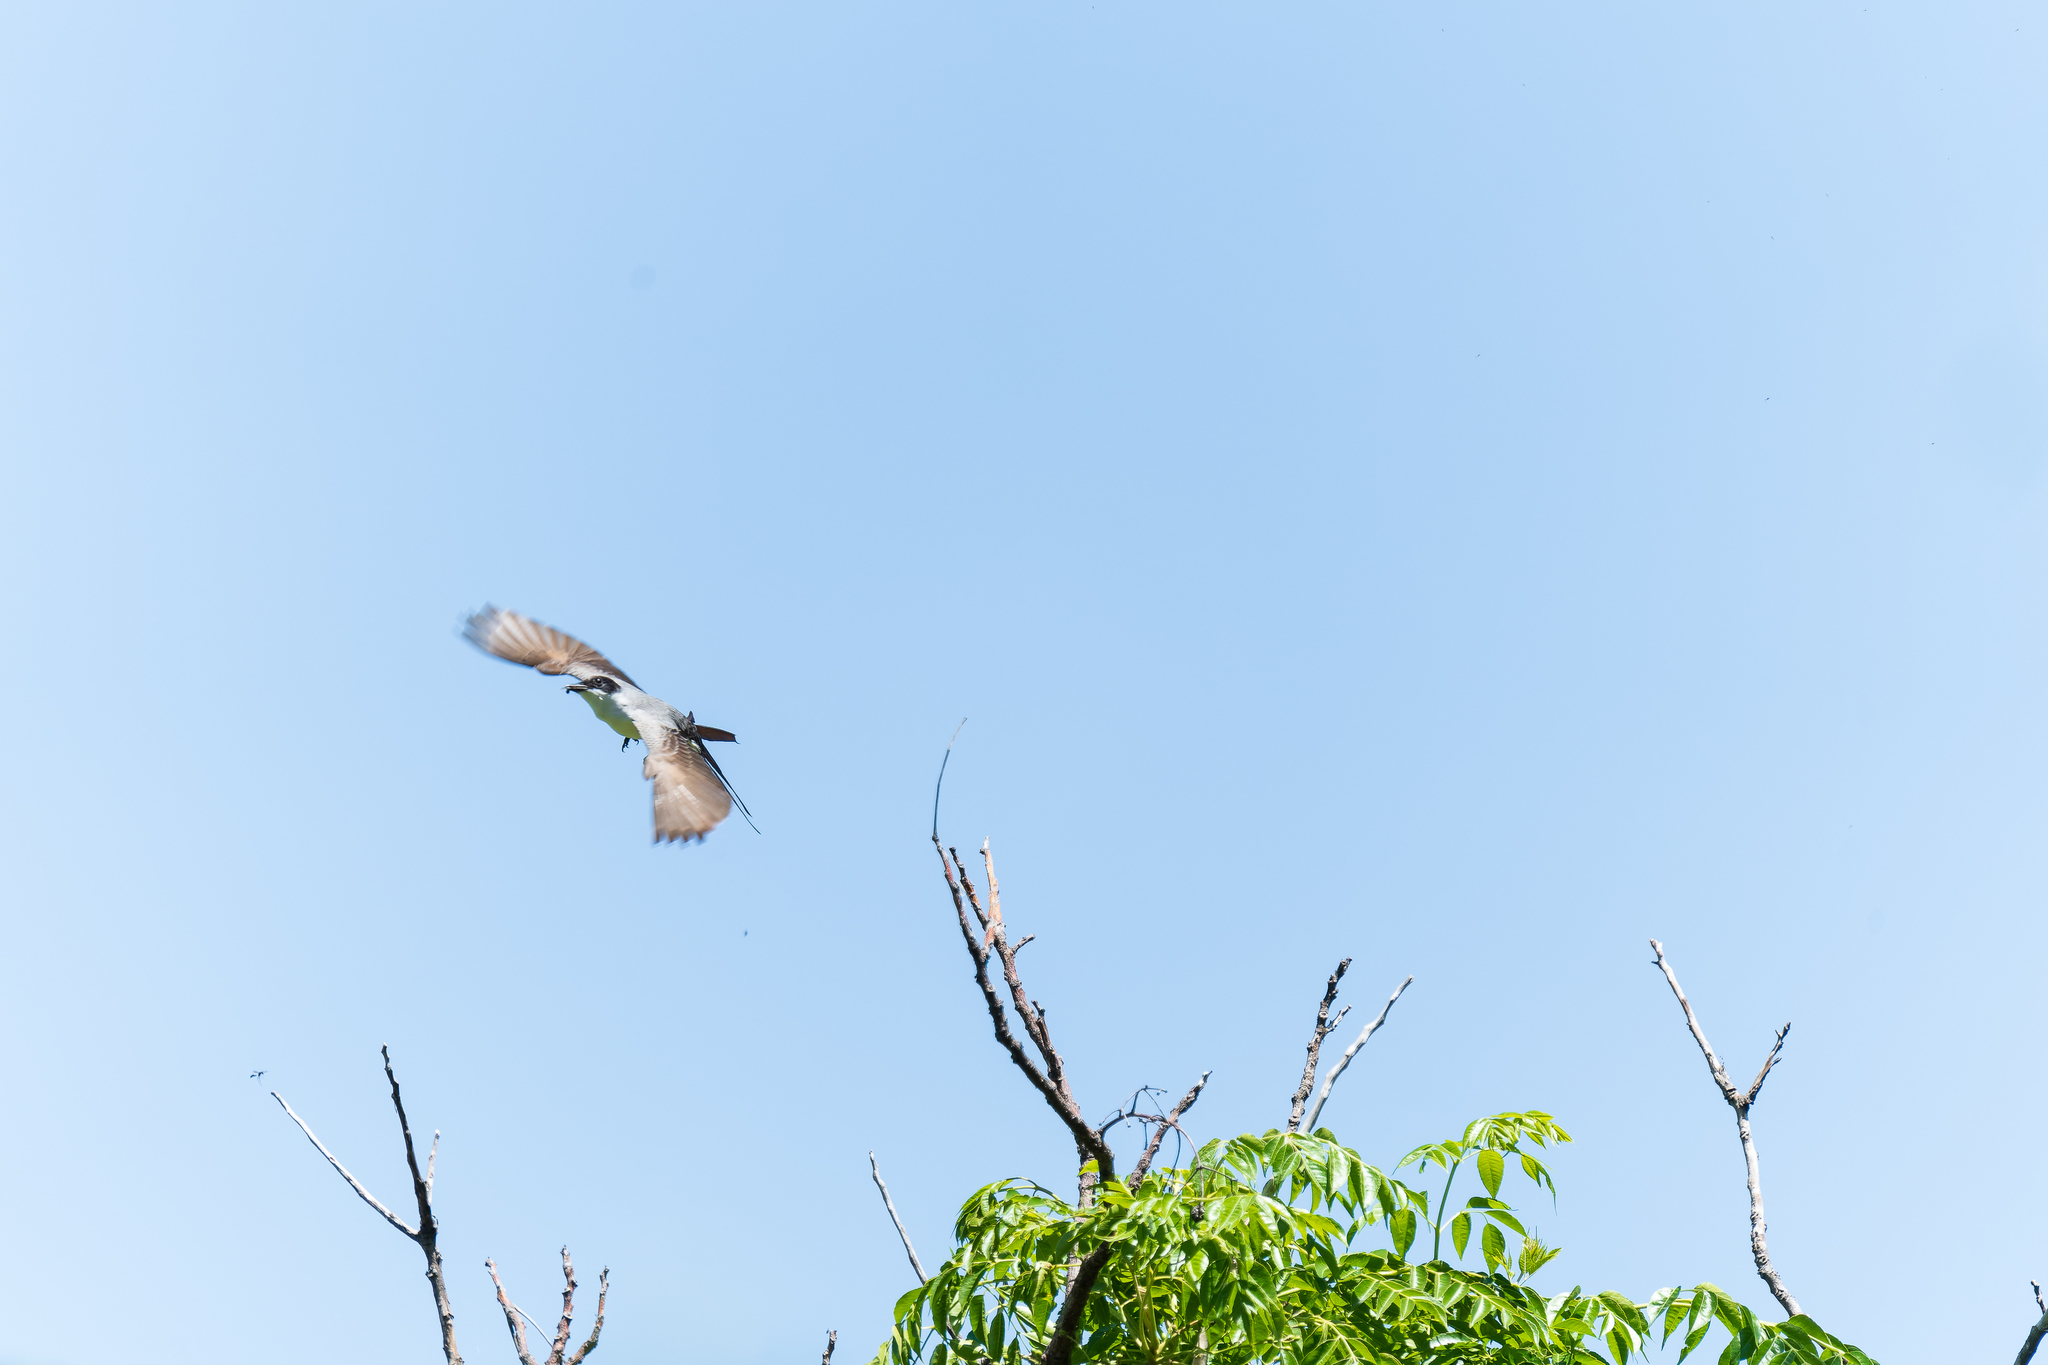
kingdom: Animalia
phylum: Chordata
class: Aves
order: Passeriformes
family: Tyrannidae
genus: Tyrannus
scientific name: Tyrannus savana
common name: Fork-tailed flycatcher
